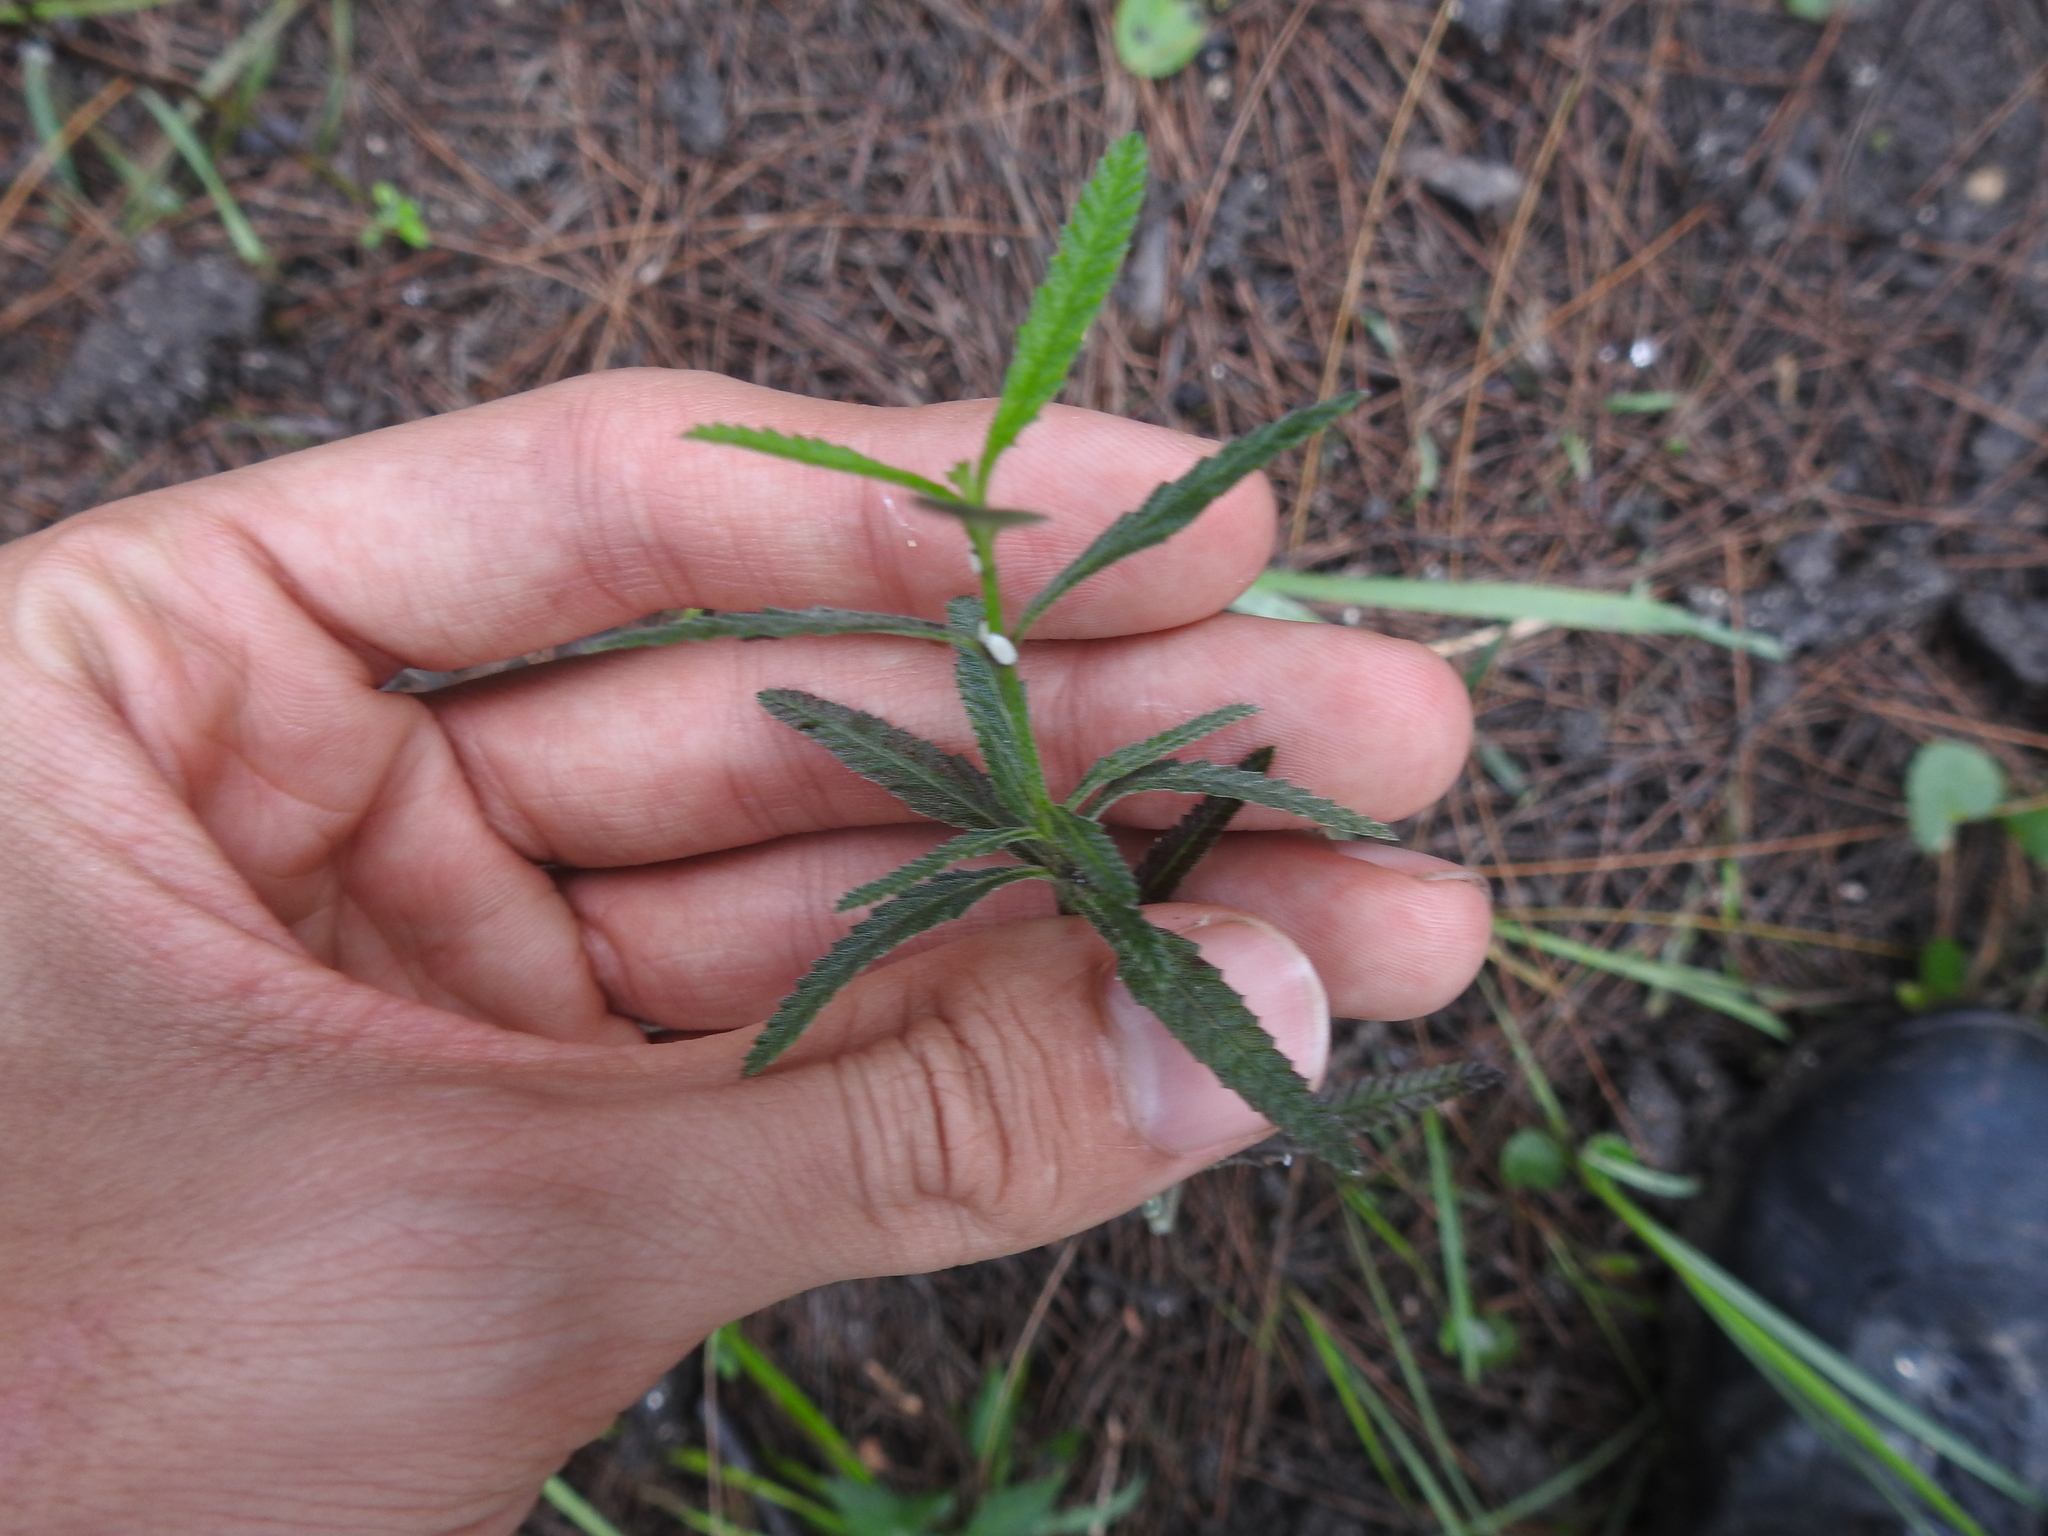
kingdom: Plantae
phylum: Tracheophyta
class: Magnoliopsida
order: Lamiales
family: Verbenaceae
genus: Lippia
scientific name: Lippia stoechadifolia
